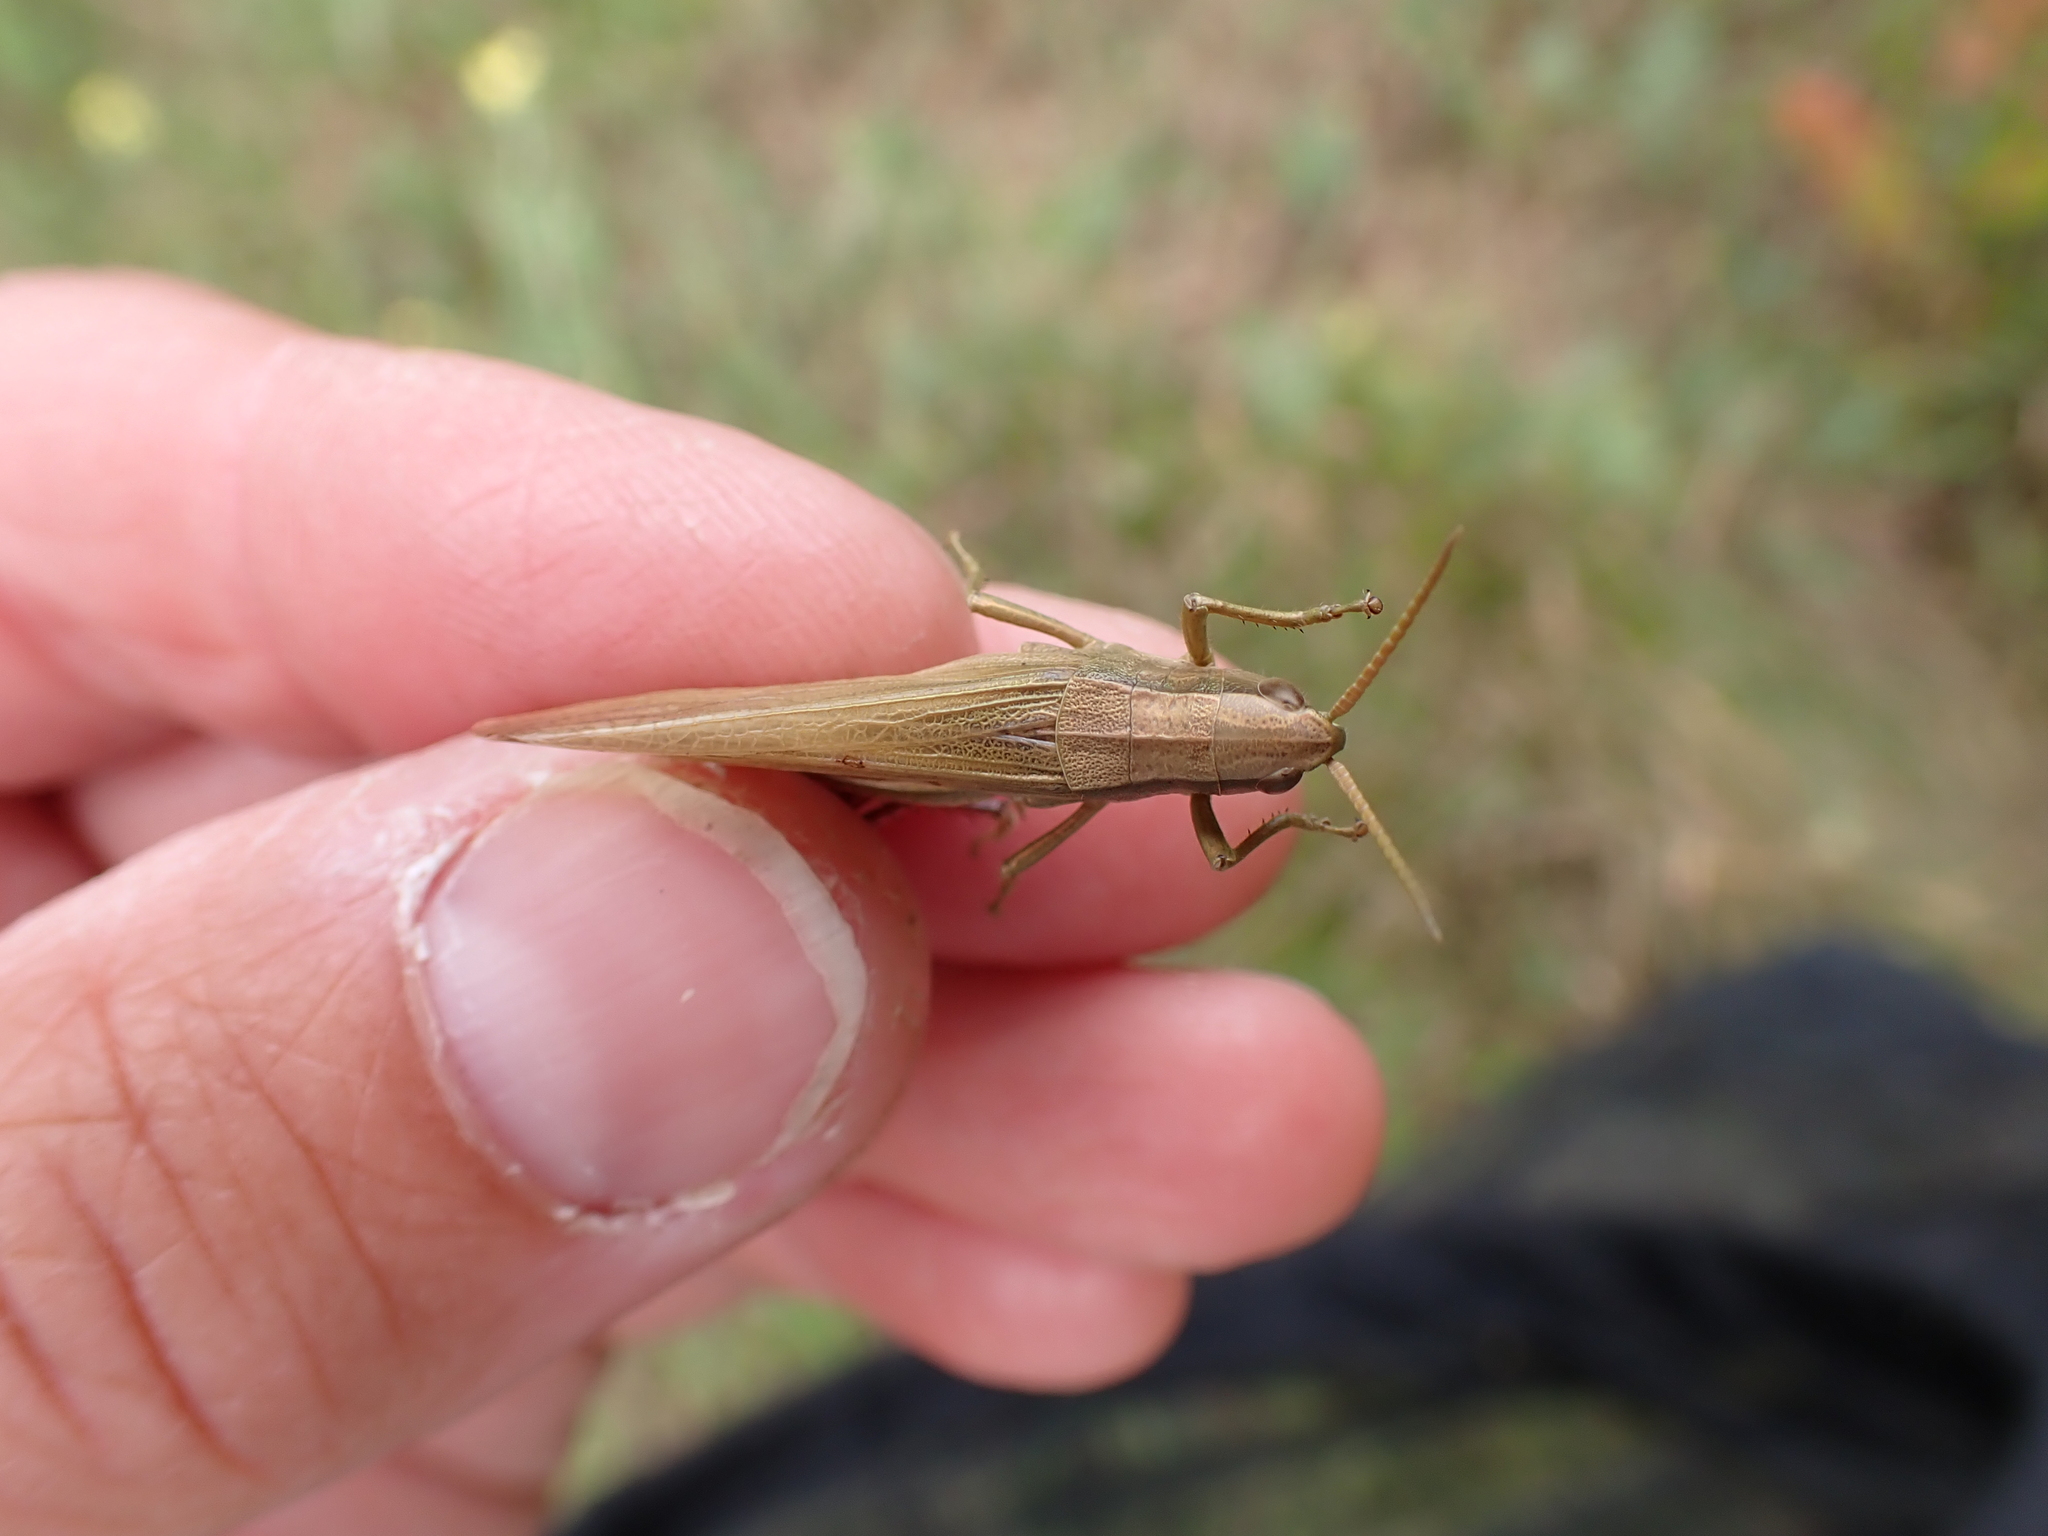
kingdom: Animalia
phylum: Arthropoda
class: Insecta
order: Orthoptera
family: Acrididae
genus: Chrysochraon
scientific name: Chrysochraon dispar
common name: Large gold grasshopper
